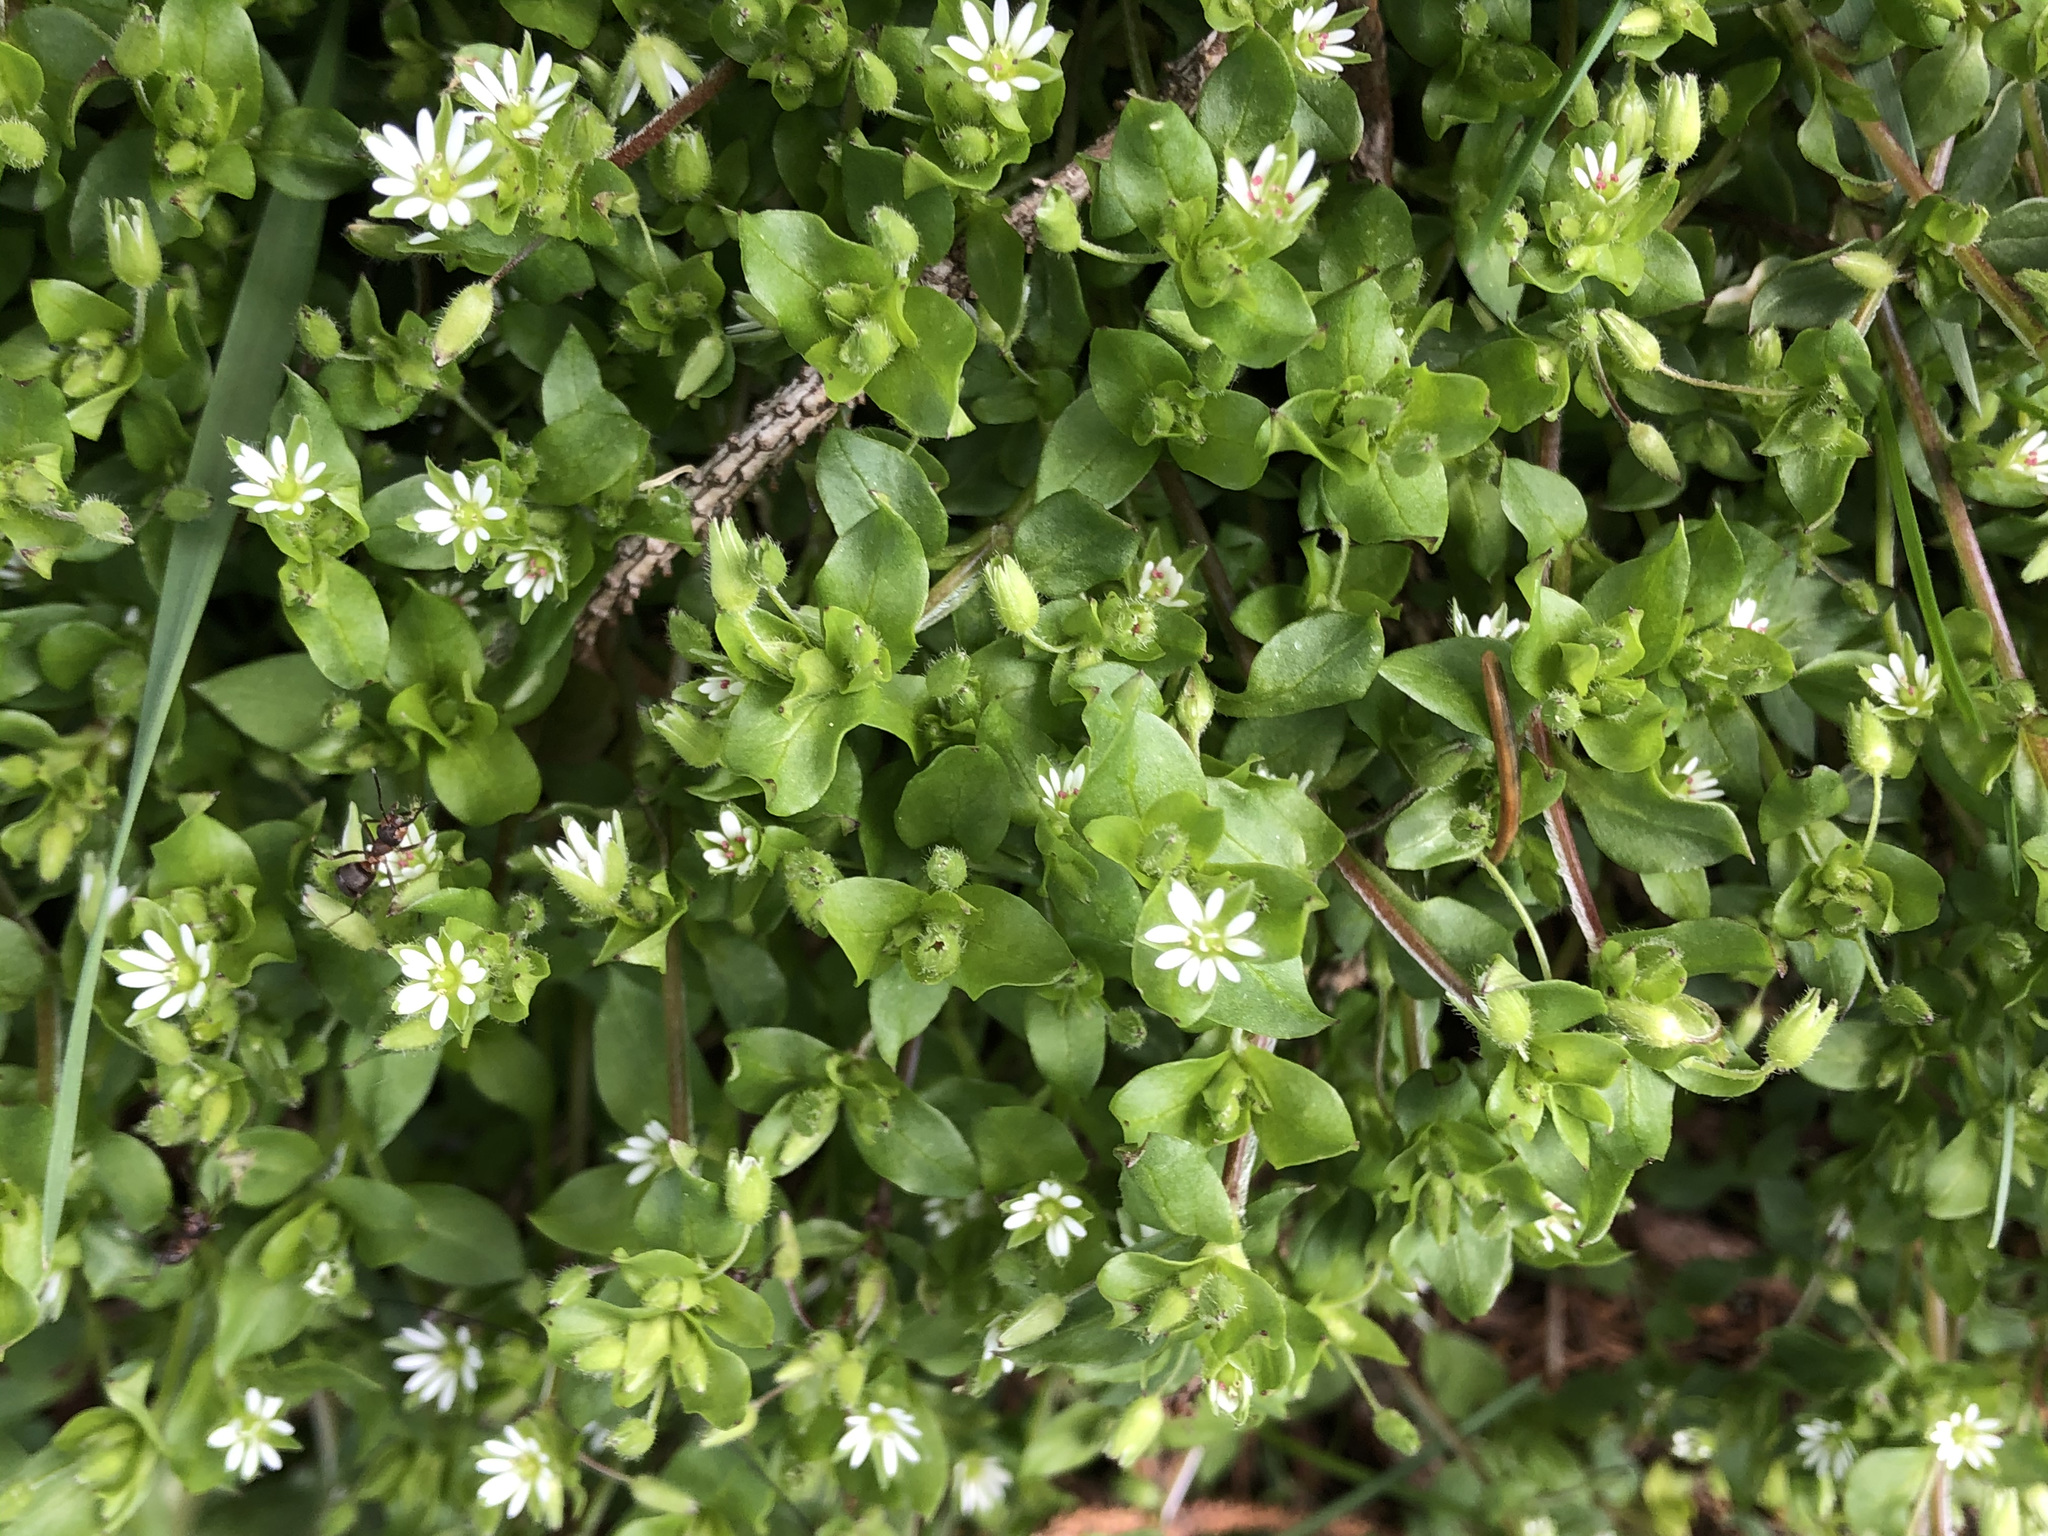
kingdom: Plantae
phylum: Tracheophyta
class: Magnoliopsida
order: Caryophyllales
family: Caryophyllaceae
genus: Stellaria
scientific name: Stellaria media
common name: Common chickweed
